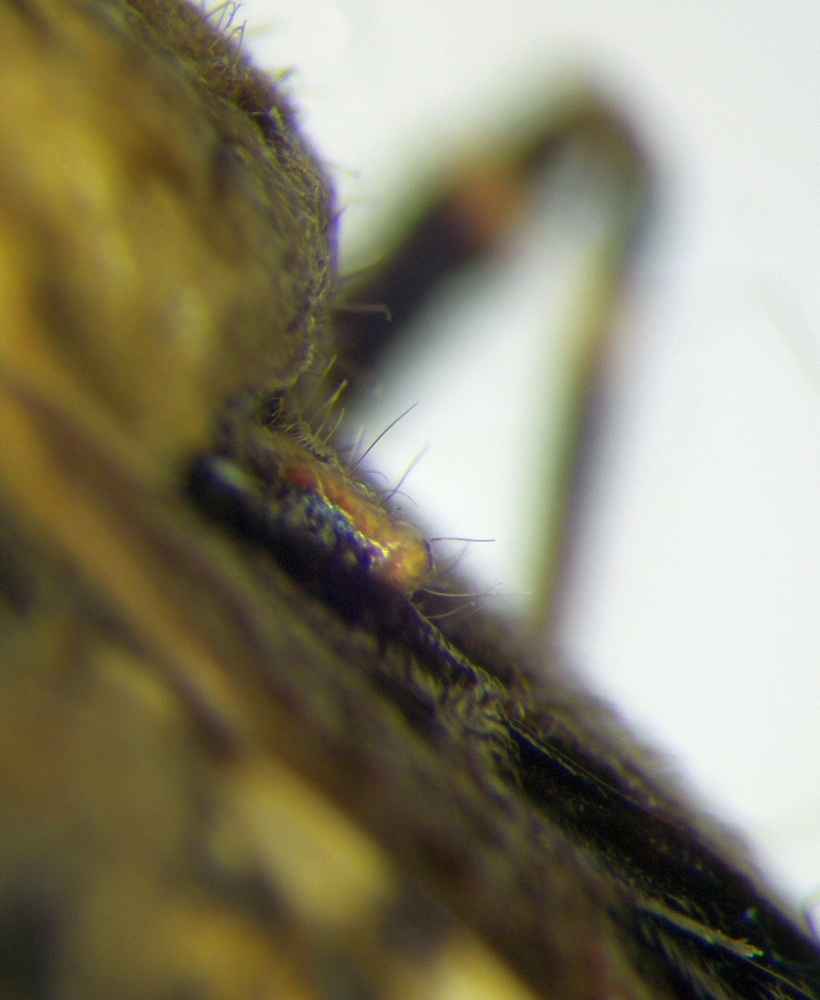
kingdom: Animalia
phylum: Arthropoda
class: Insecta
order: Hemiptera
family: Reduviidae
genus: Coranus
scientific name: Coranus griseus
